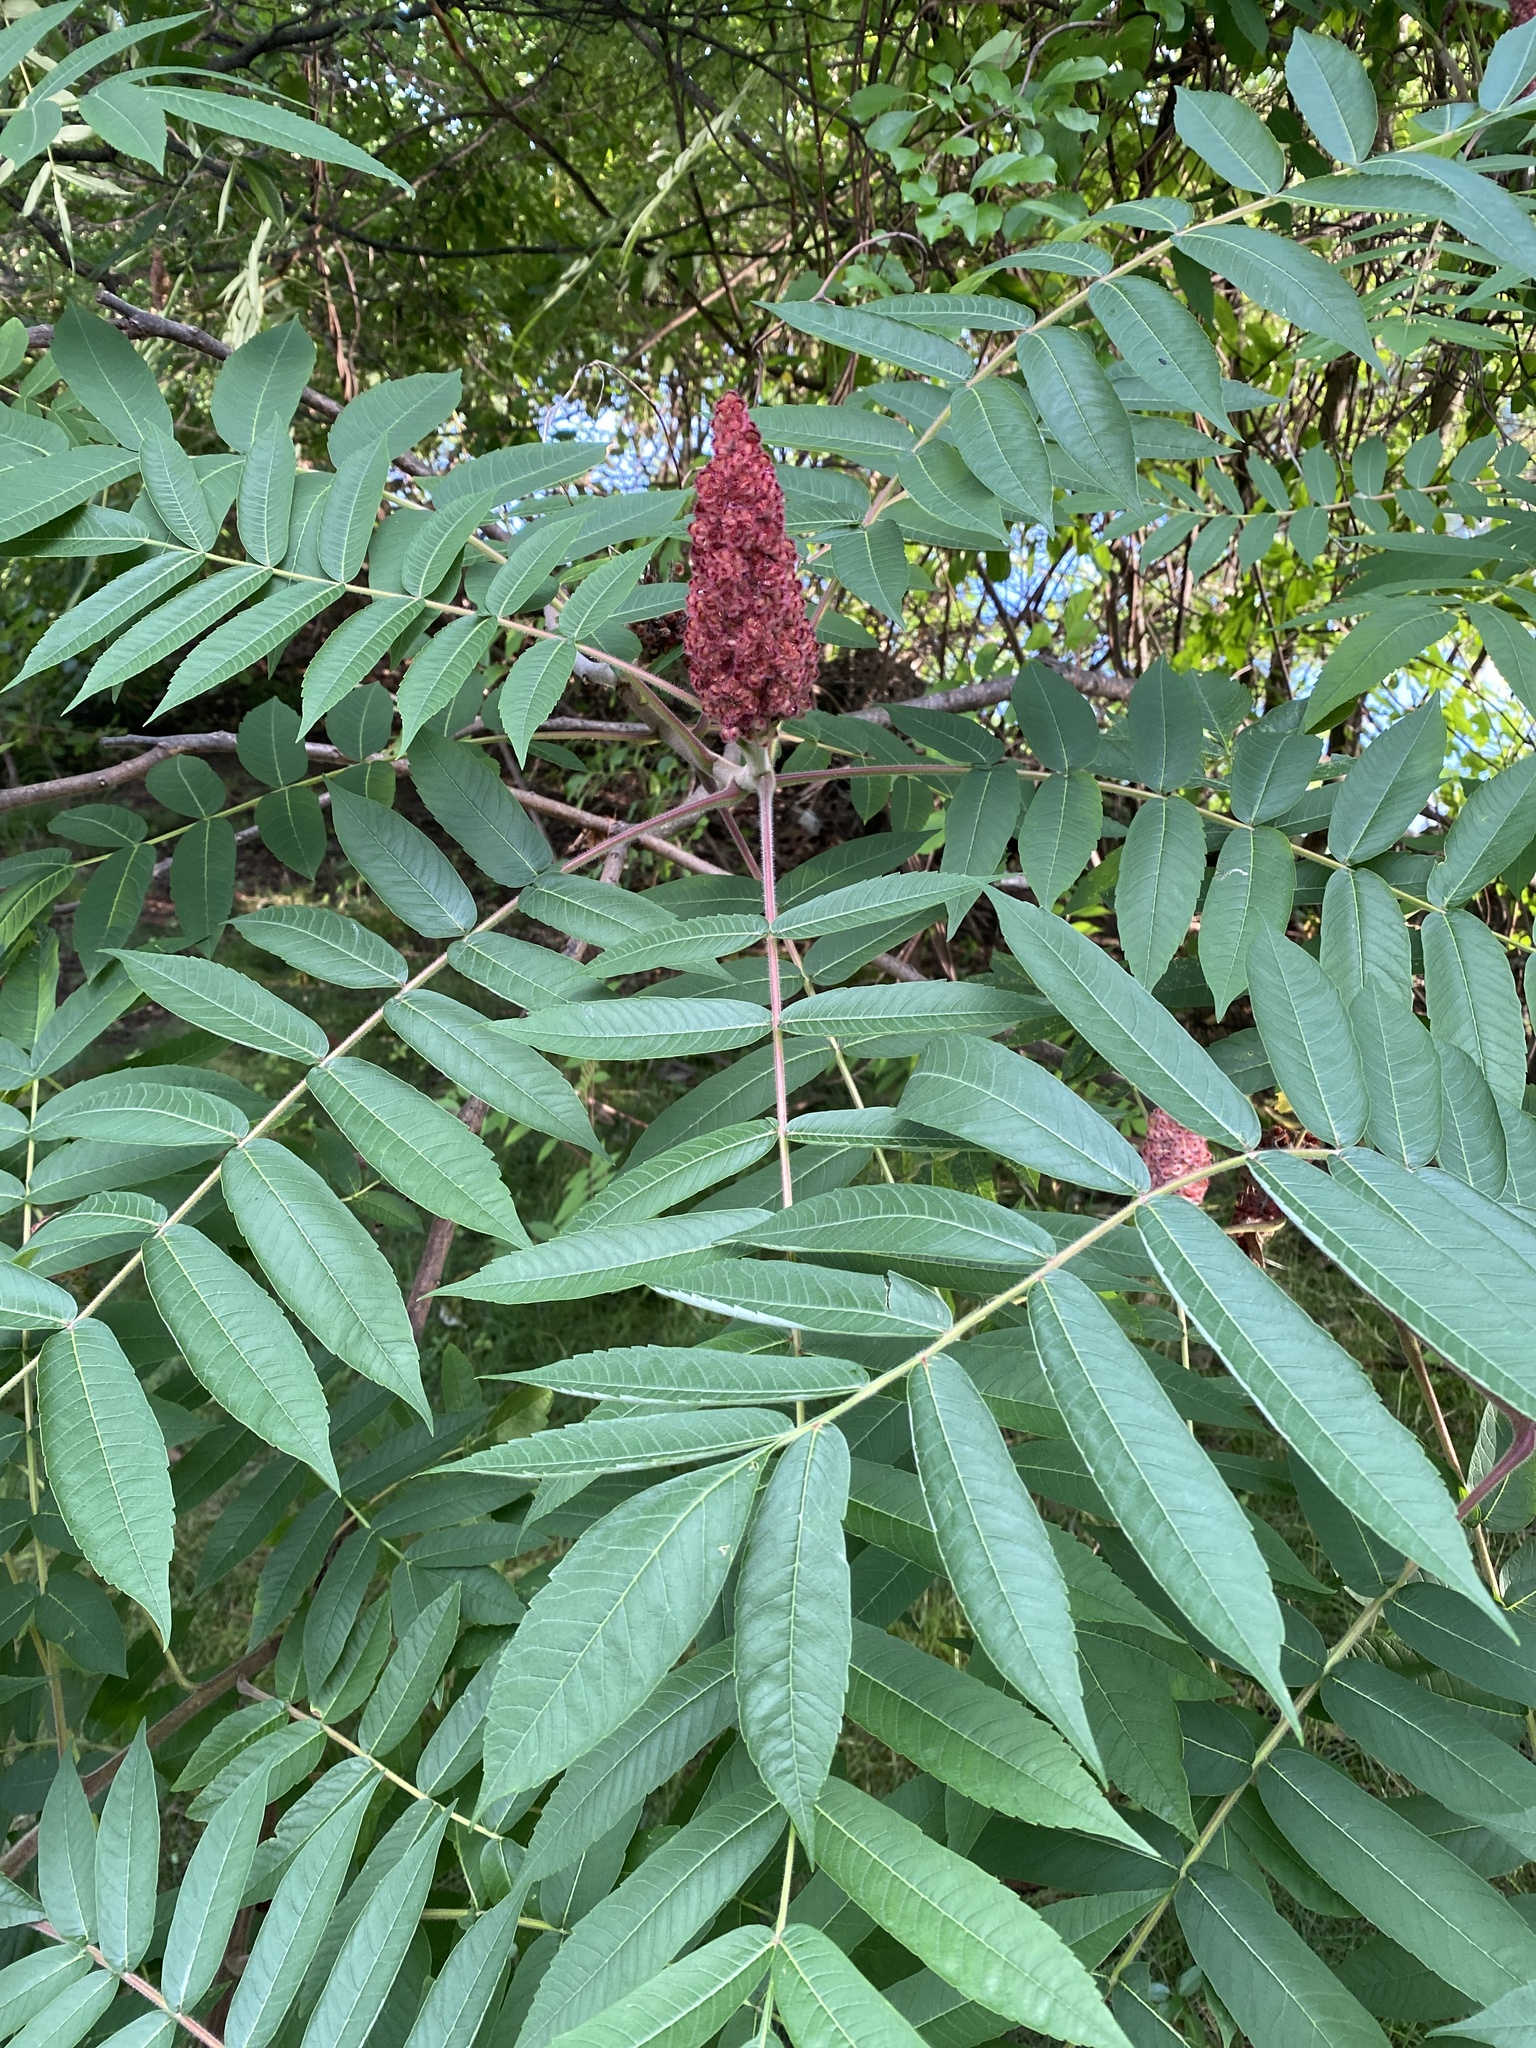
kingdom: Plantae
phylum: Tracheophyta
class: Magnoliopsida
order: Sapindales
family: Anacardiaceae
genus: Rhus
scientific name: Rhus typhina
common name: Staghorn sumac
